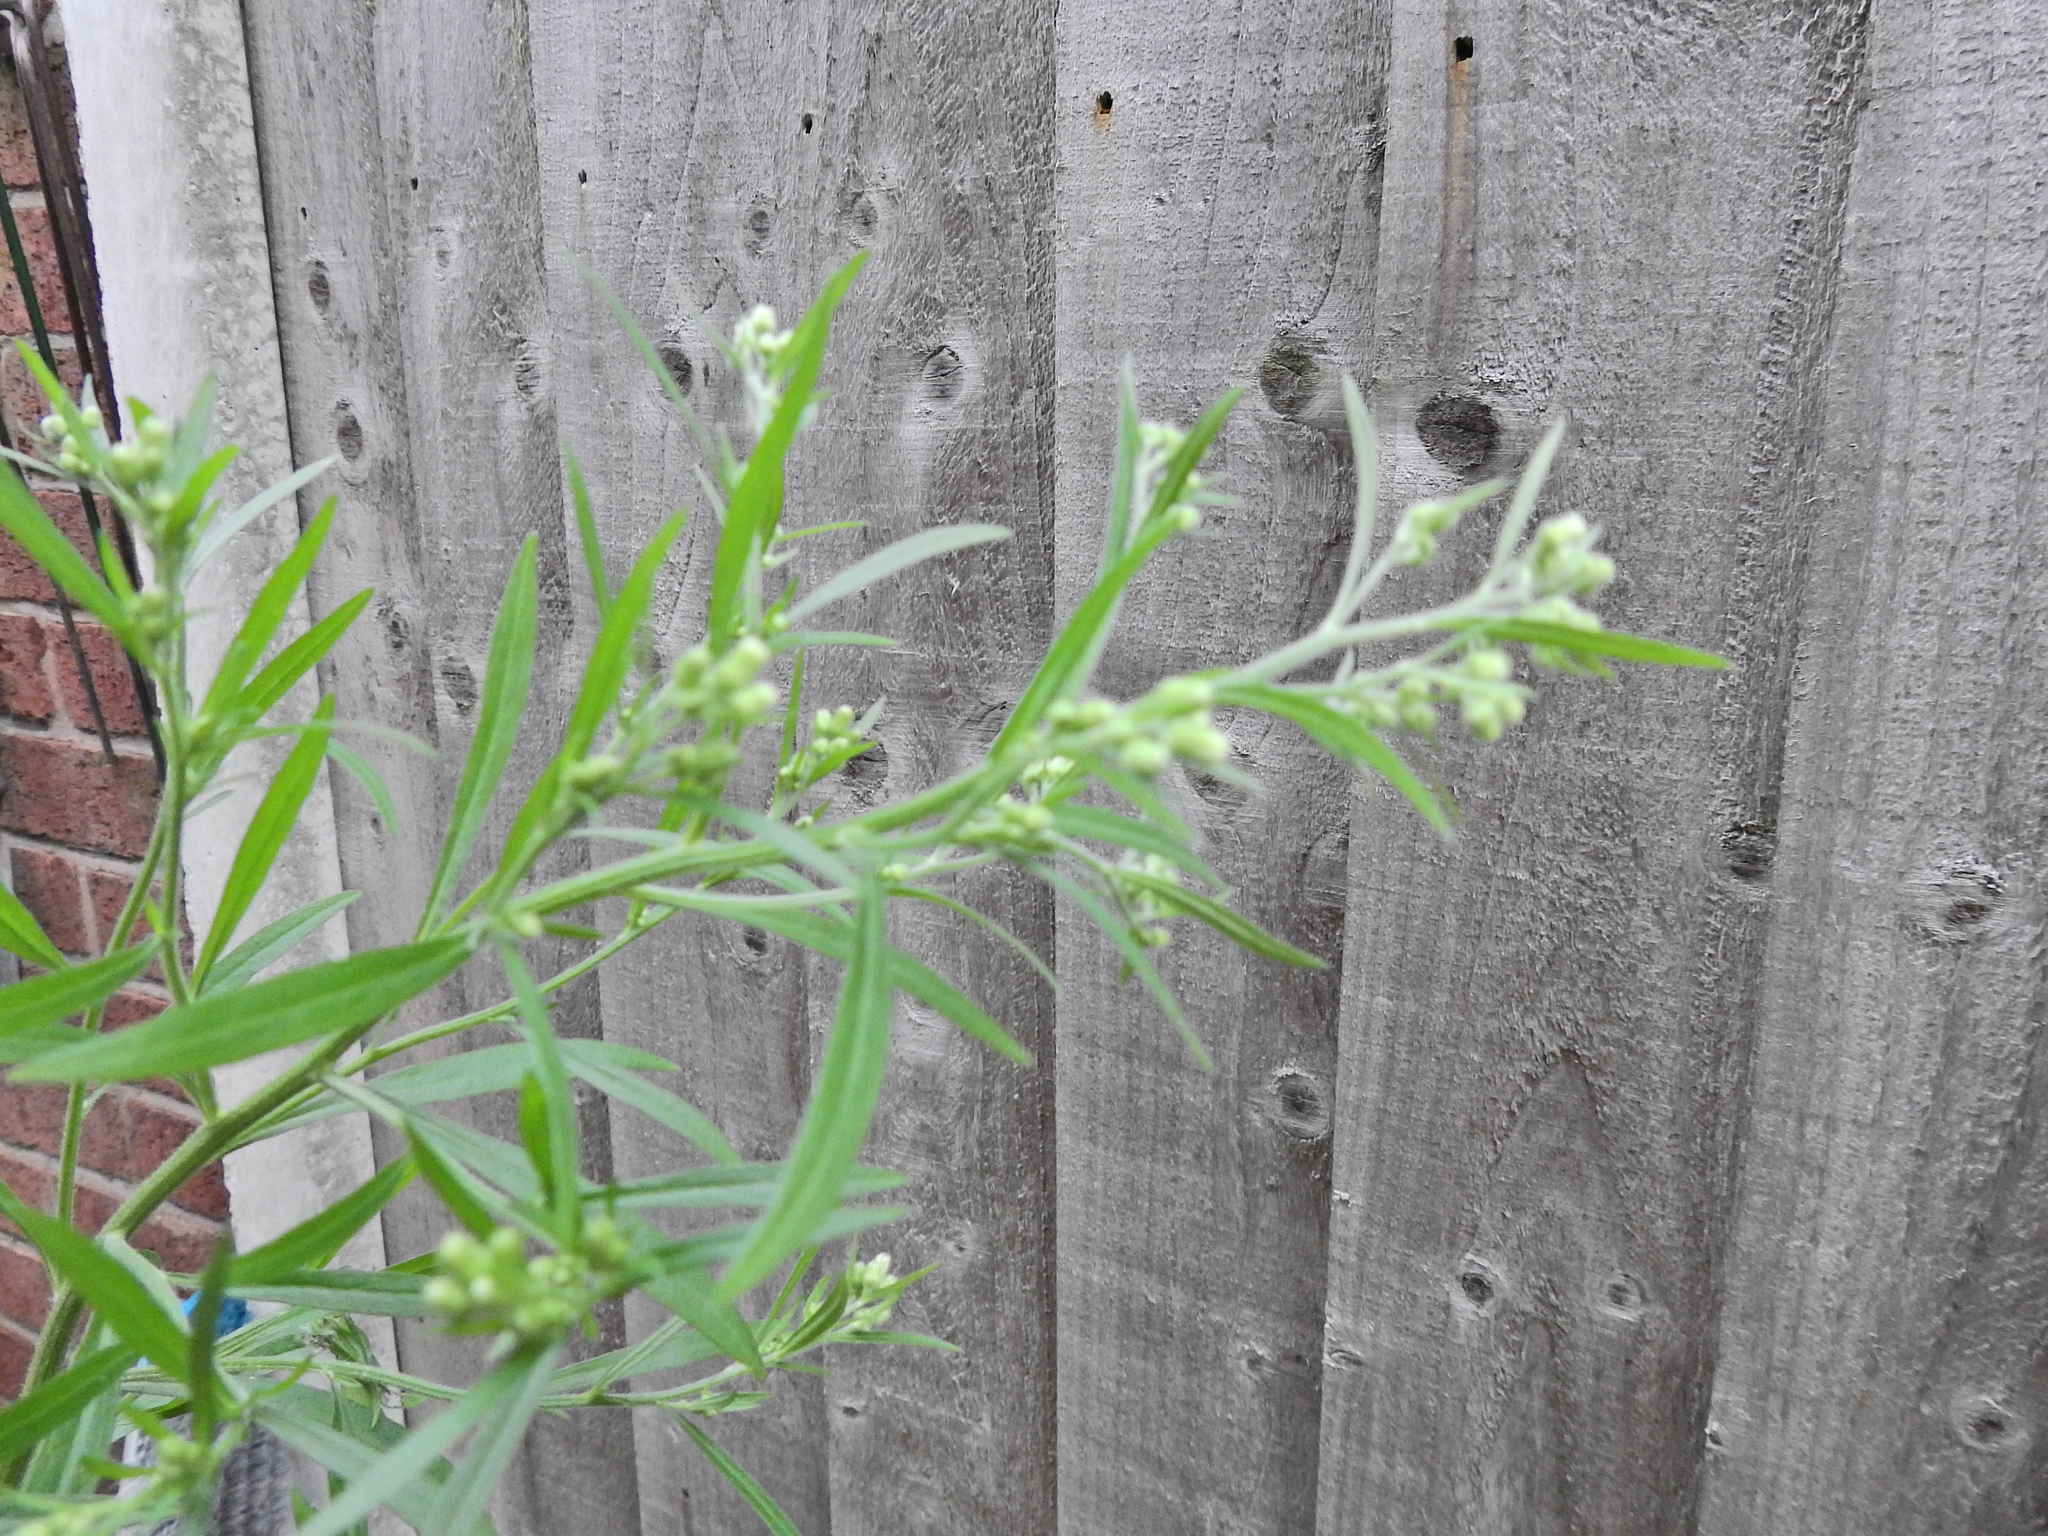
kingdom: Plantae
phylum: Tracheophyta
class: Magnoliopsida
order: Asterales
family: Asteraceae
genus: Erigeron
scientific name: Erigeron sumatrensis
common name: Daisy
